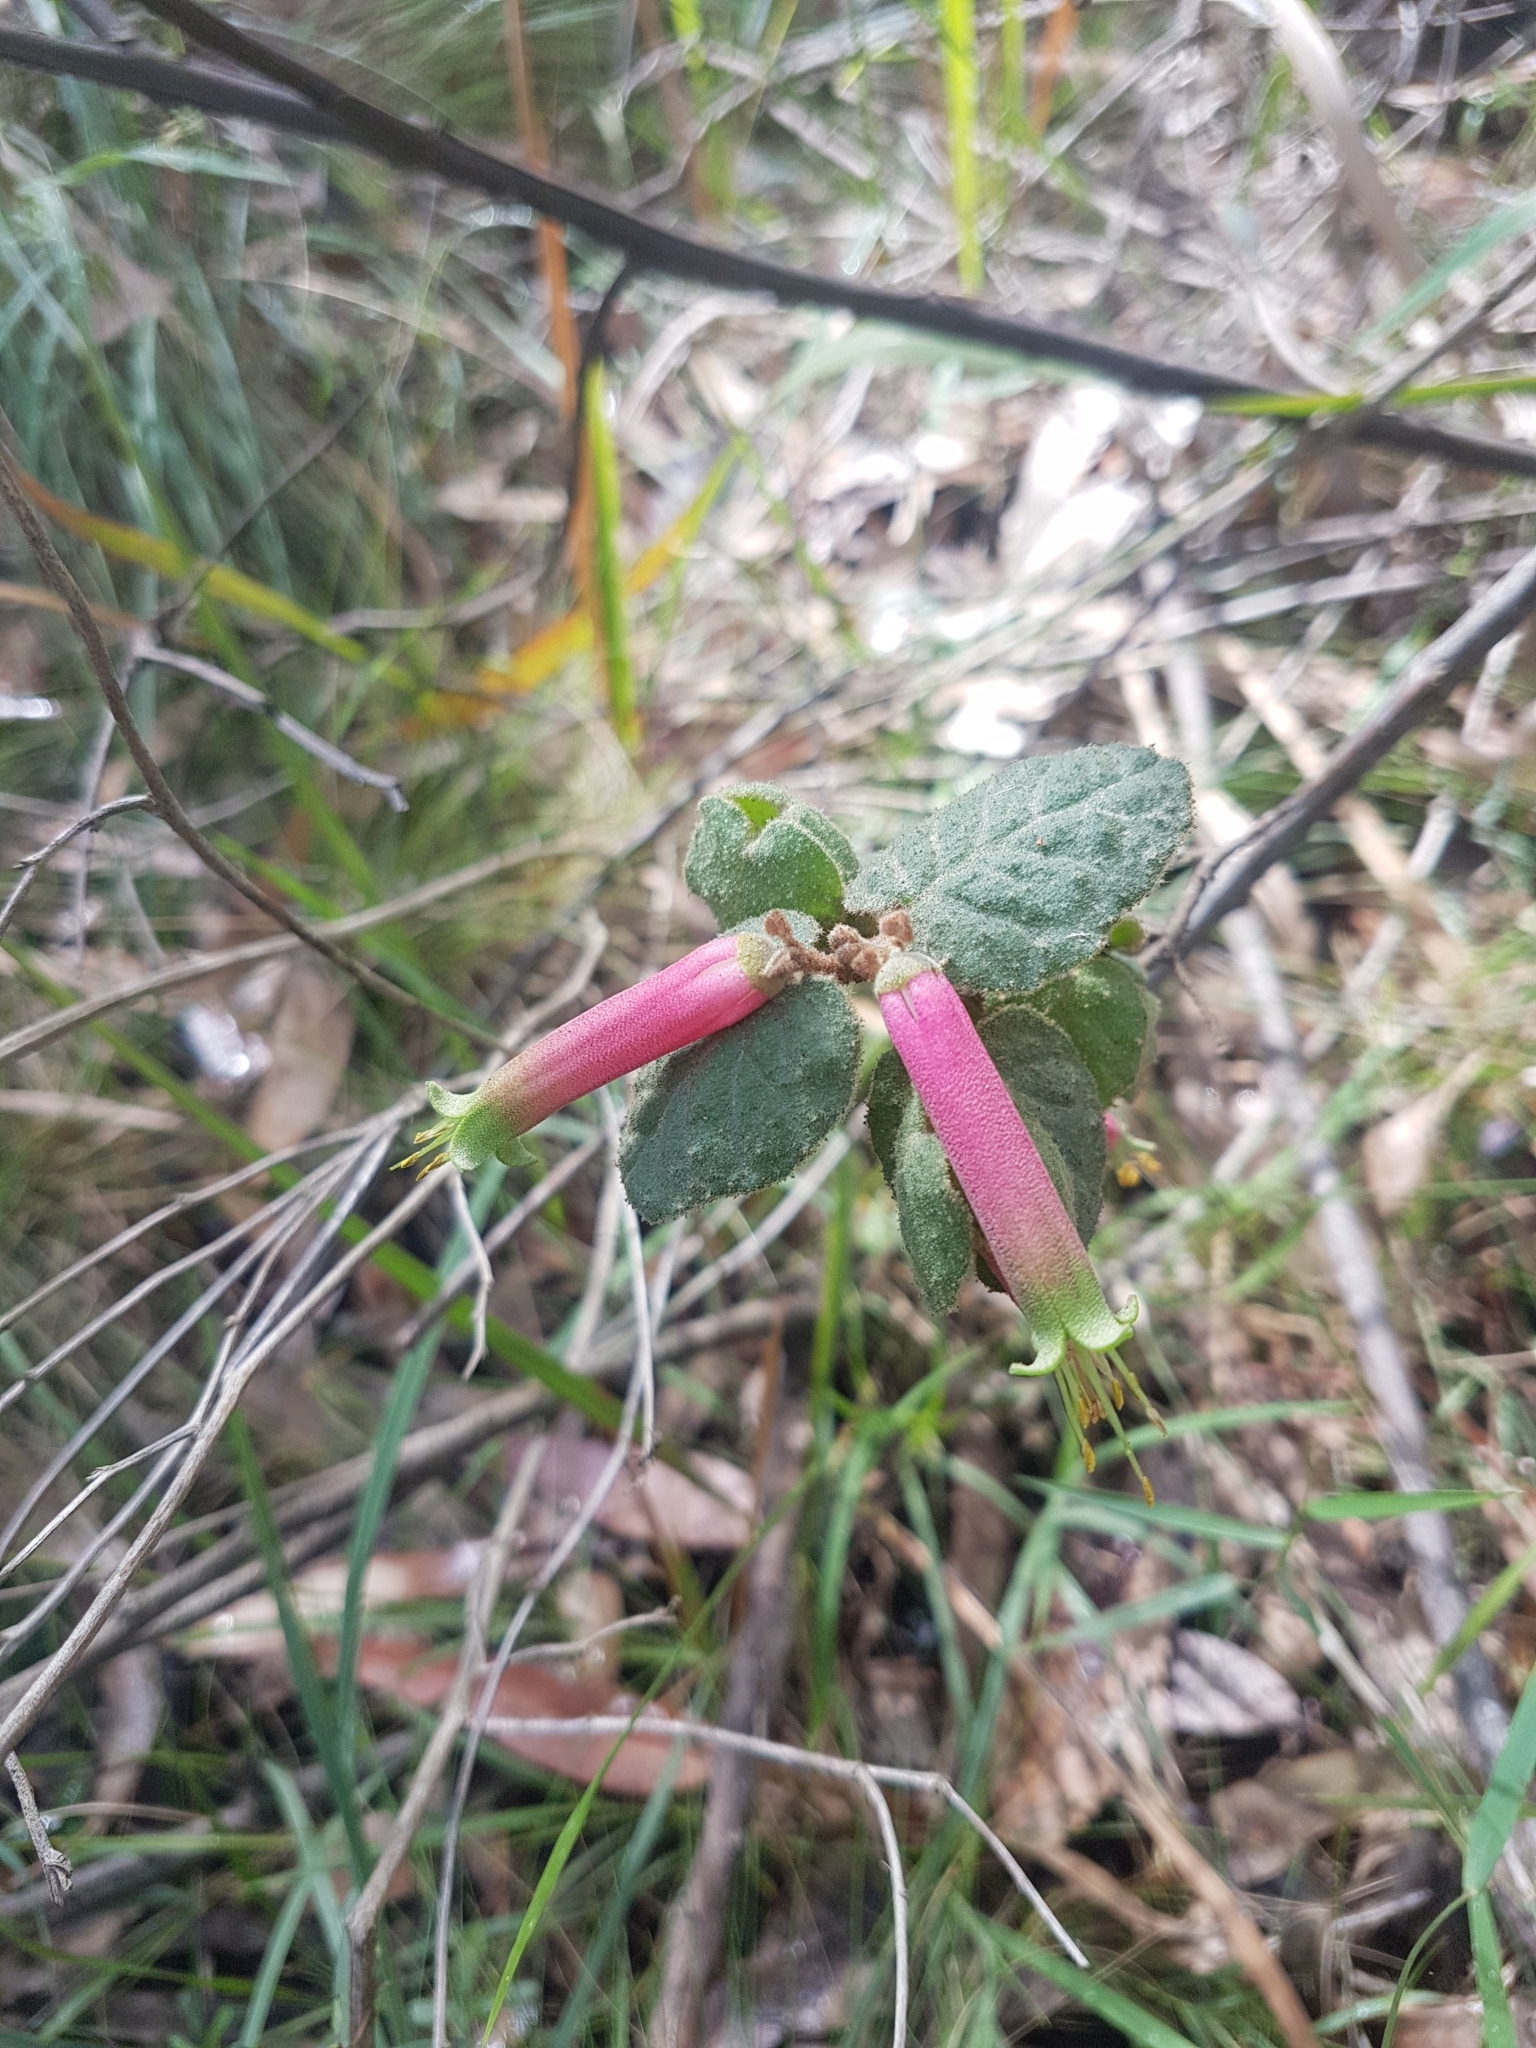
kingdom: Plantae
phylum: Tracheophyta
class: Magnoliopsida
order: Sapindales
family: Rutaceae
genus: Correa
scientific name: Correa reflexa
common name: Common correa
